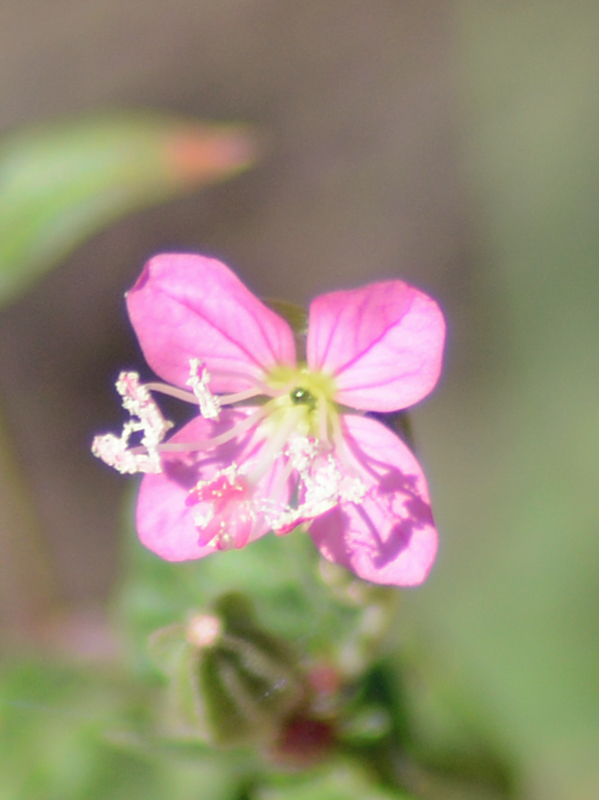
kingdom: Plantae
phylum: Tracheophyta
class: Magnoliopsida
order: Myrtales
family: Onagraceae
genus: Oenothera
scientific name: Oenothera rosea
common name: Rosy evening-primrose
